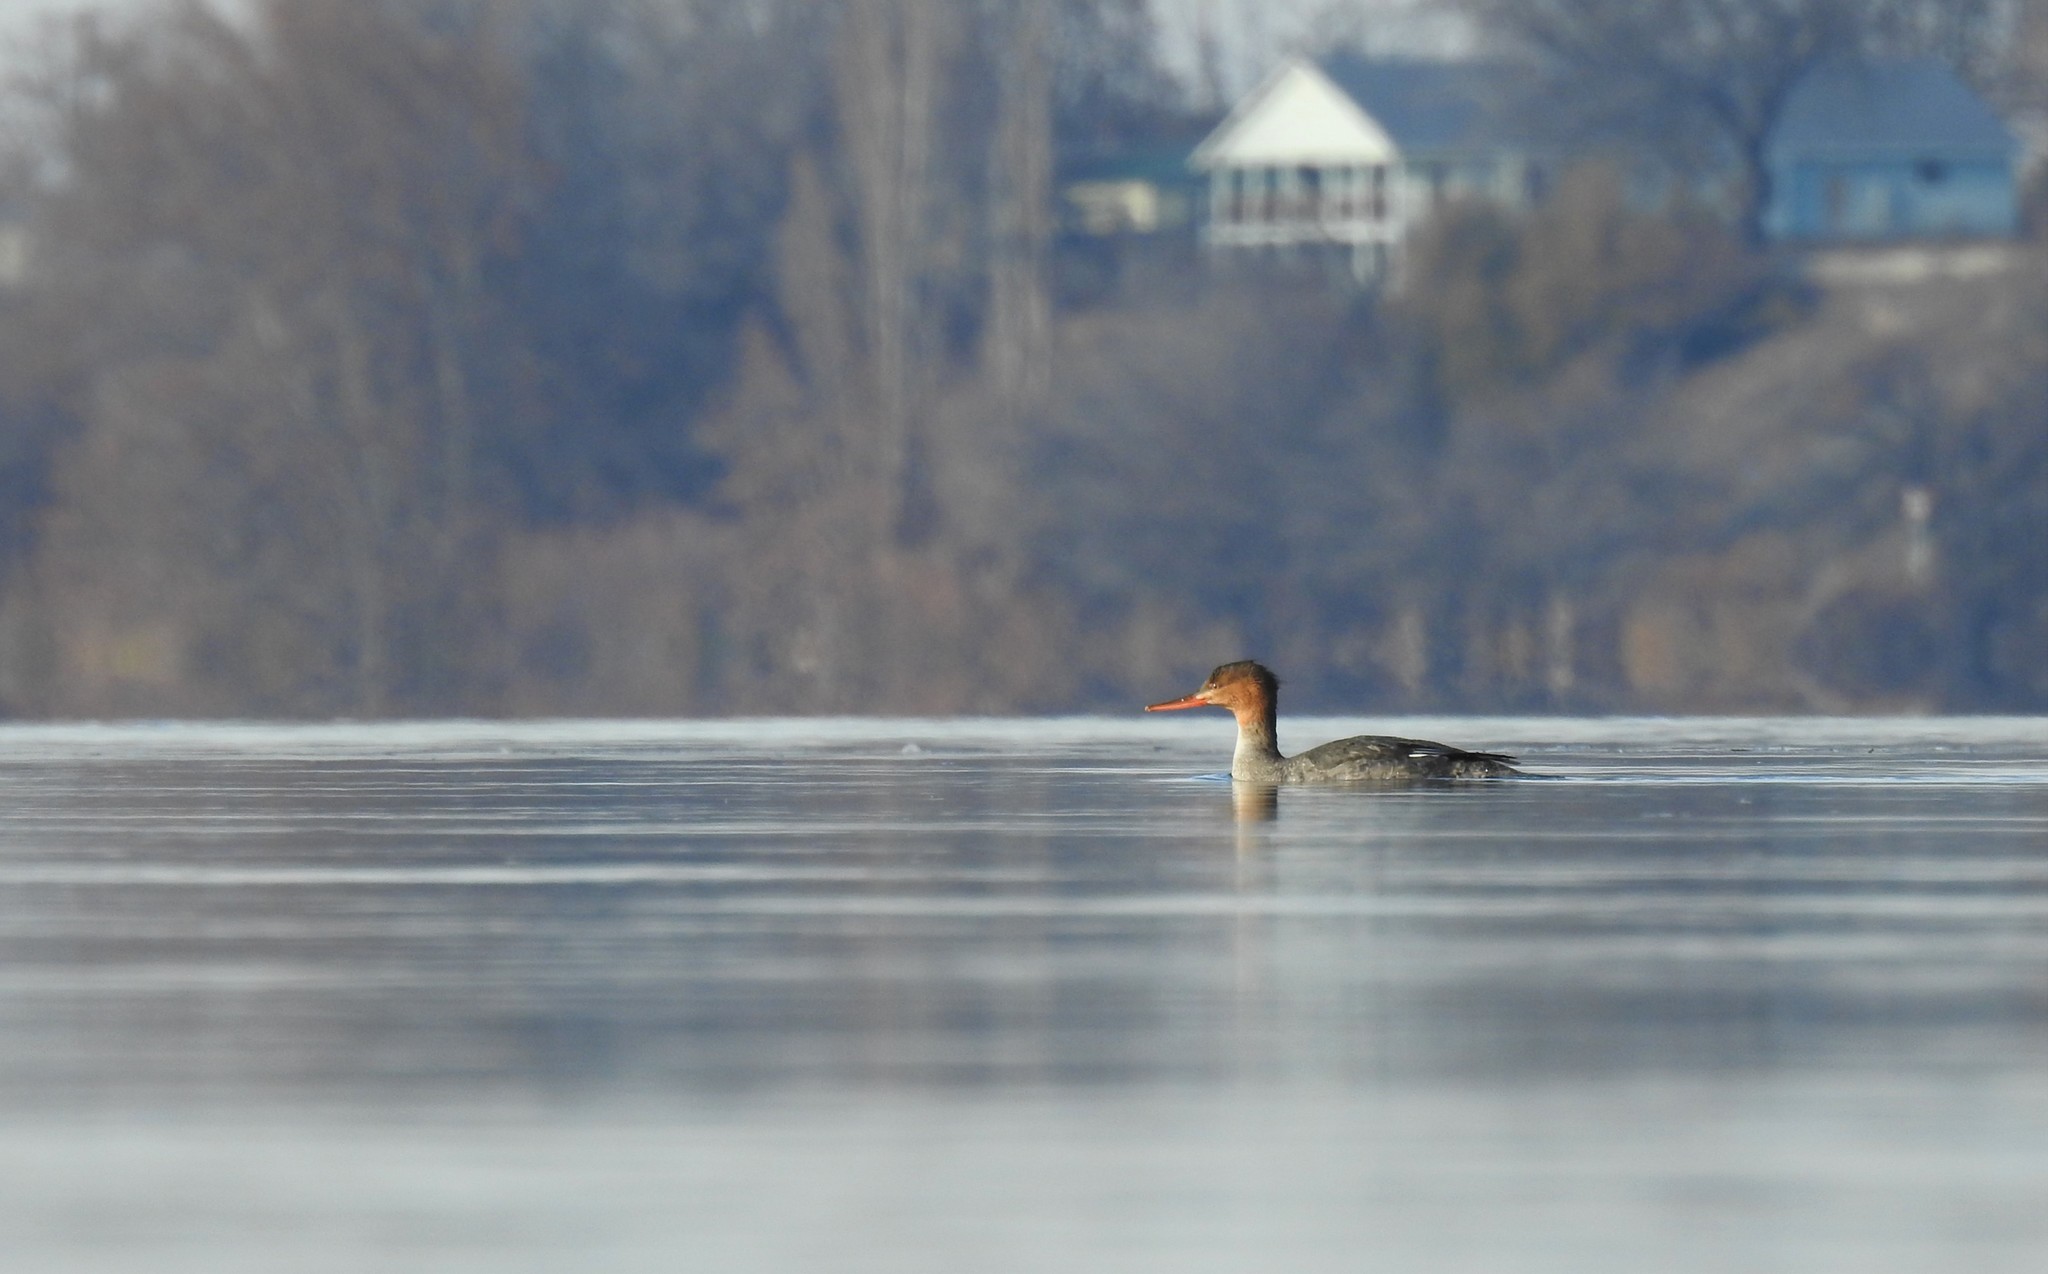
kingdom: Animalia
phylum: Chordata
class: Aves
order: Anseriformes
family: Anatidae
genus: Mergus
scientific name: Mergus serrator
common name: Red-breasted merganser
